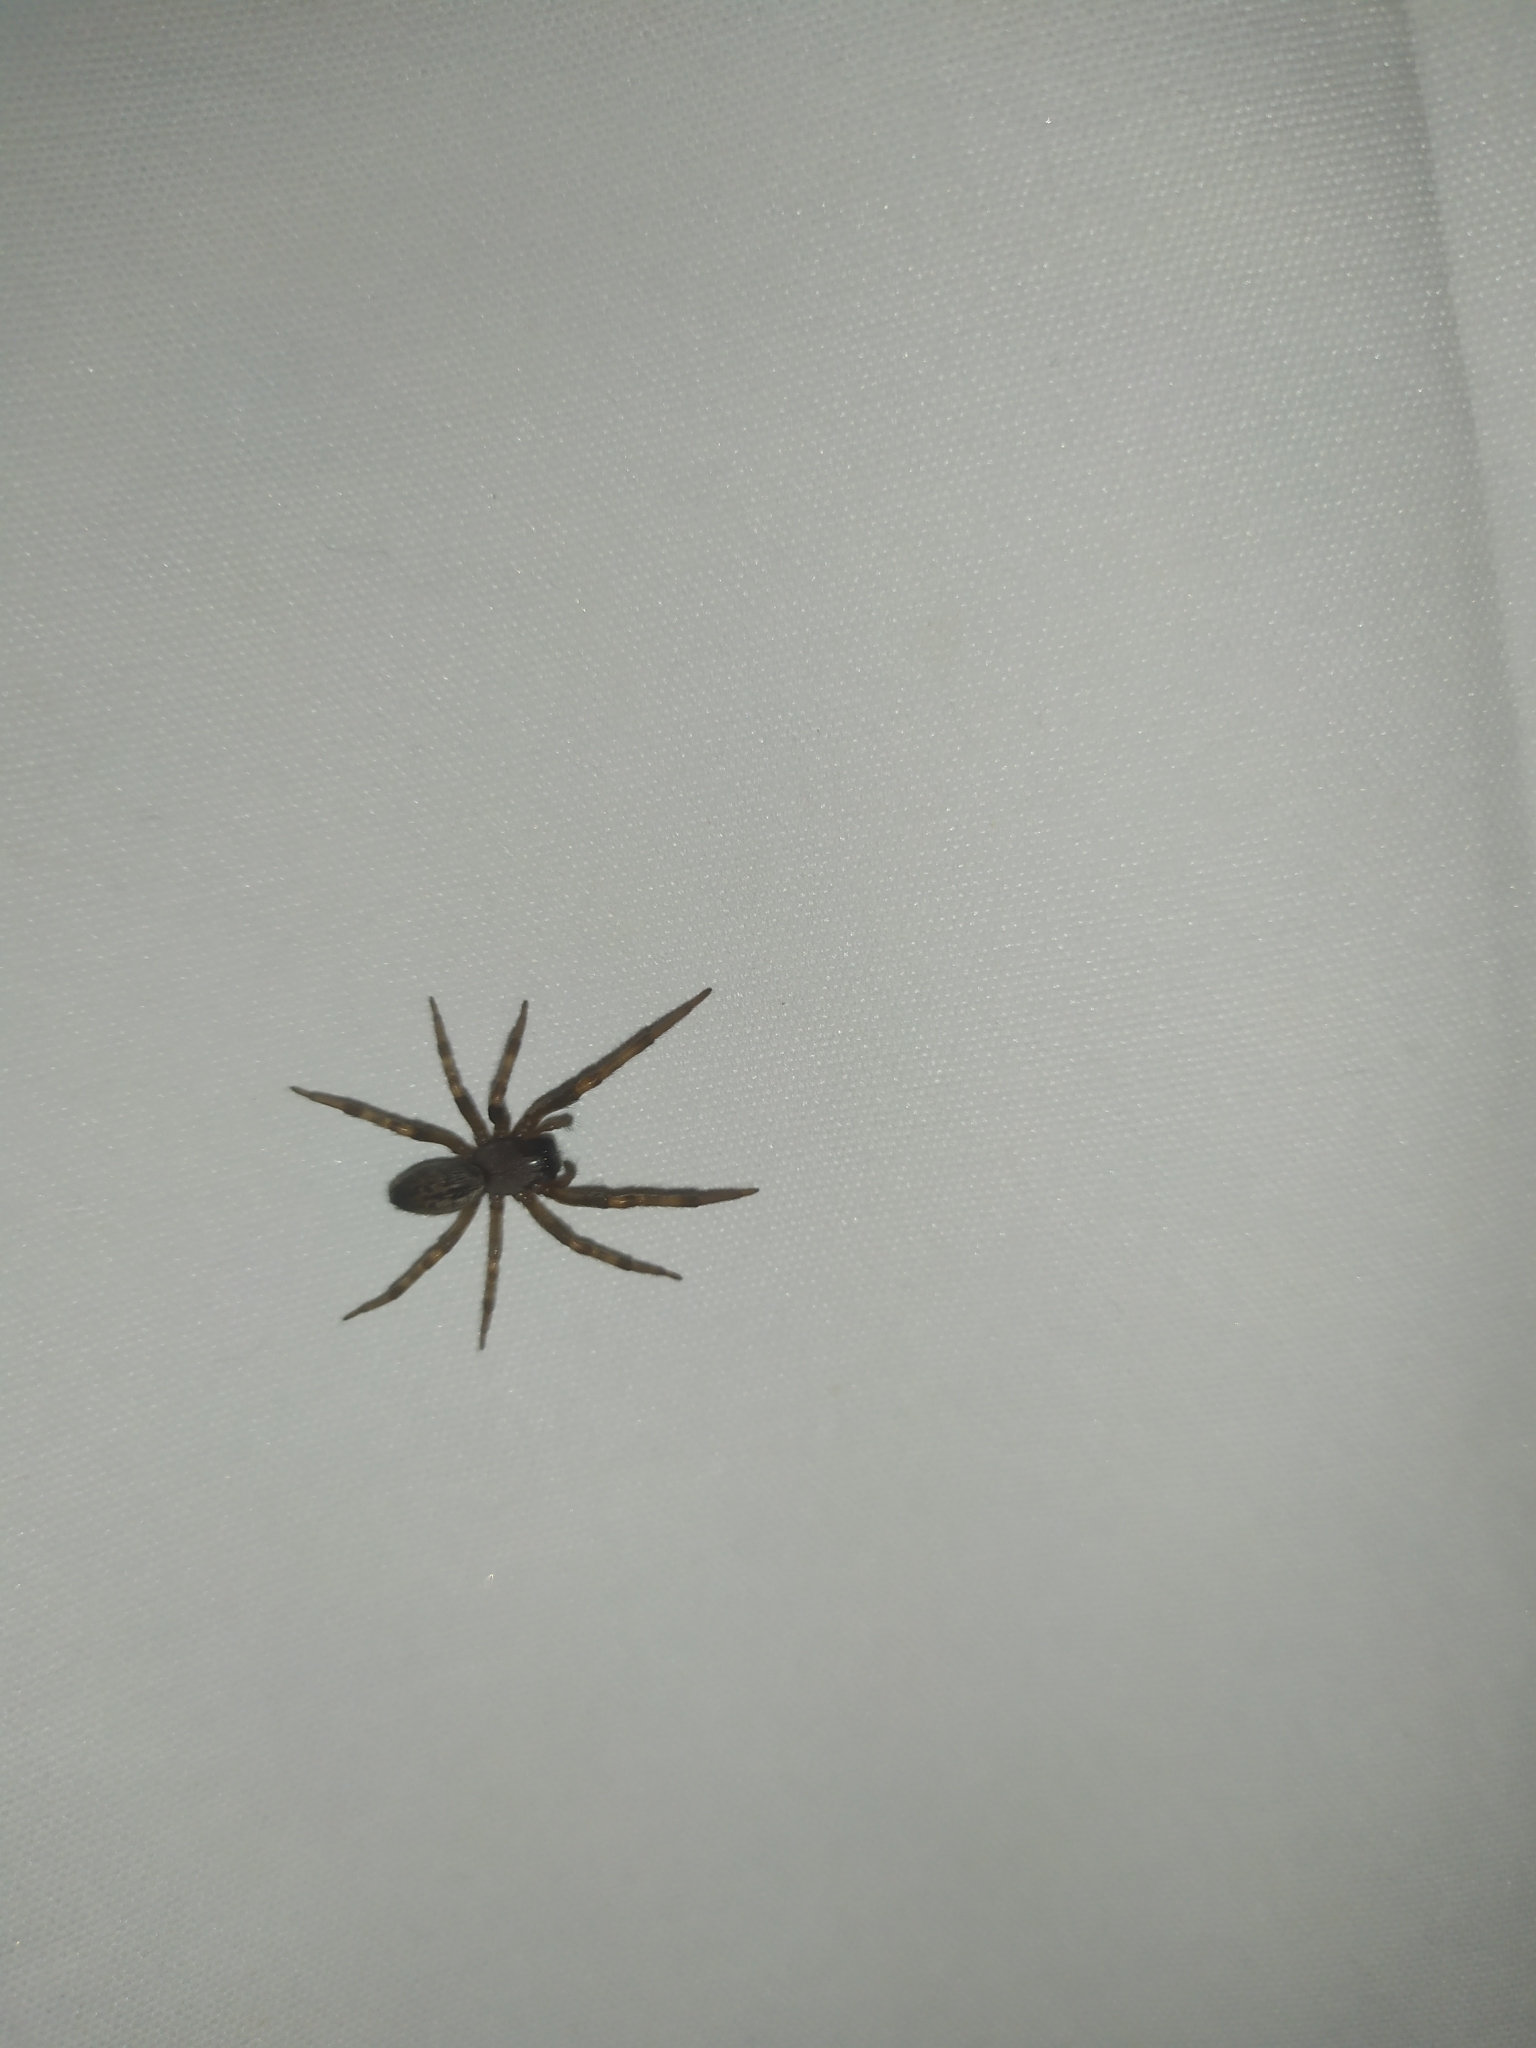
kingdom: Animalia
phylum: Arthropoda
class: Arachnida
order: Araneae
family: Desidae
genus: Badumna
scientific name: Badumna longinqua
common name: Gray house spider
